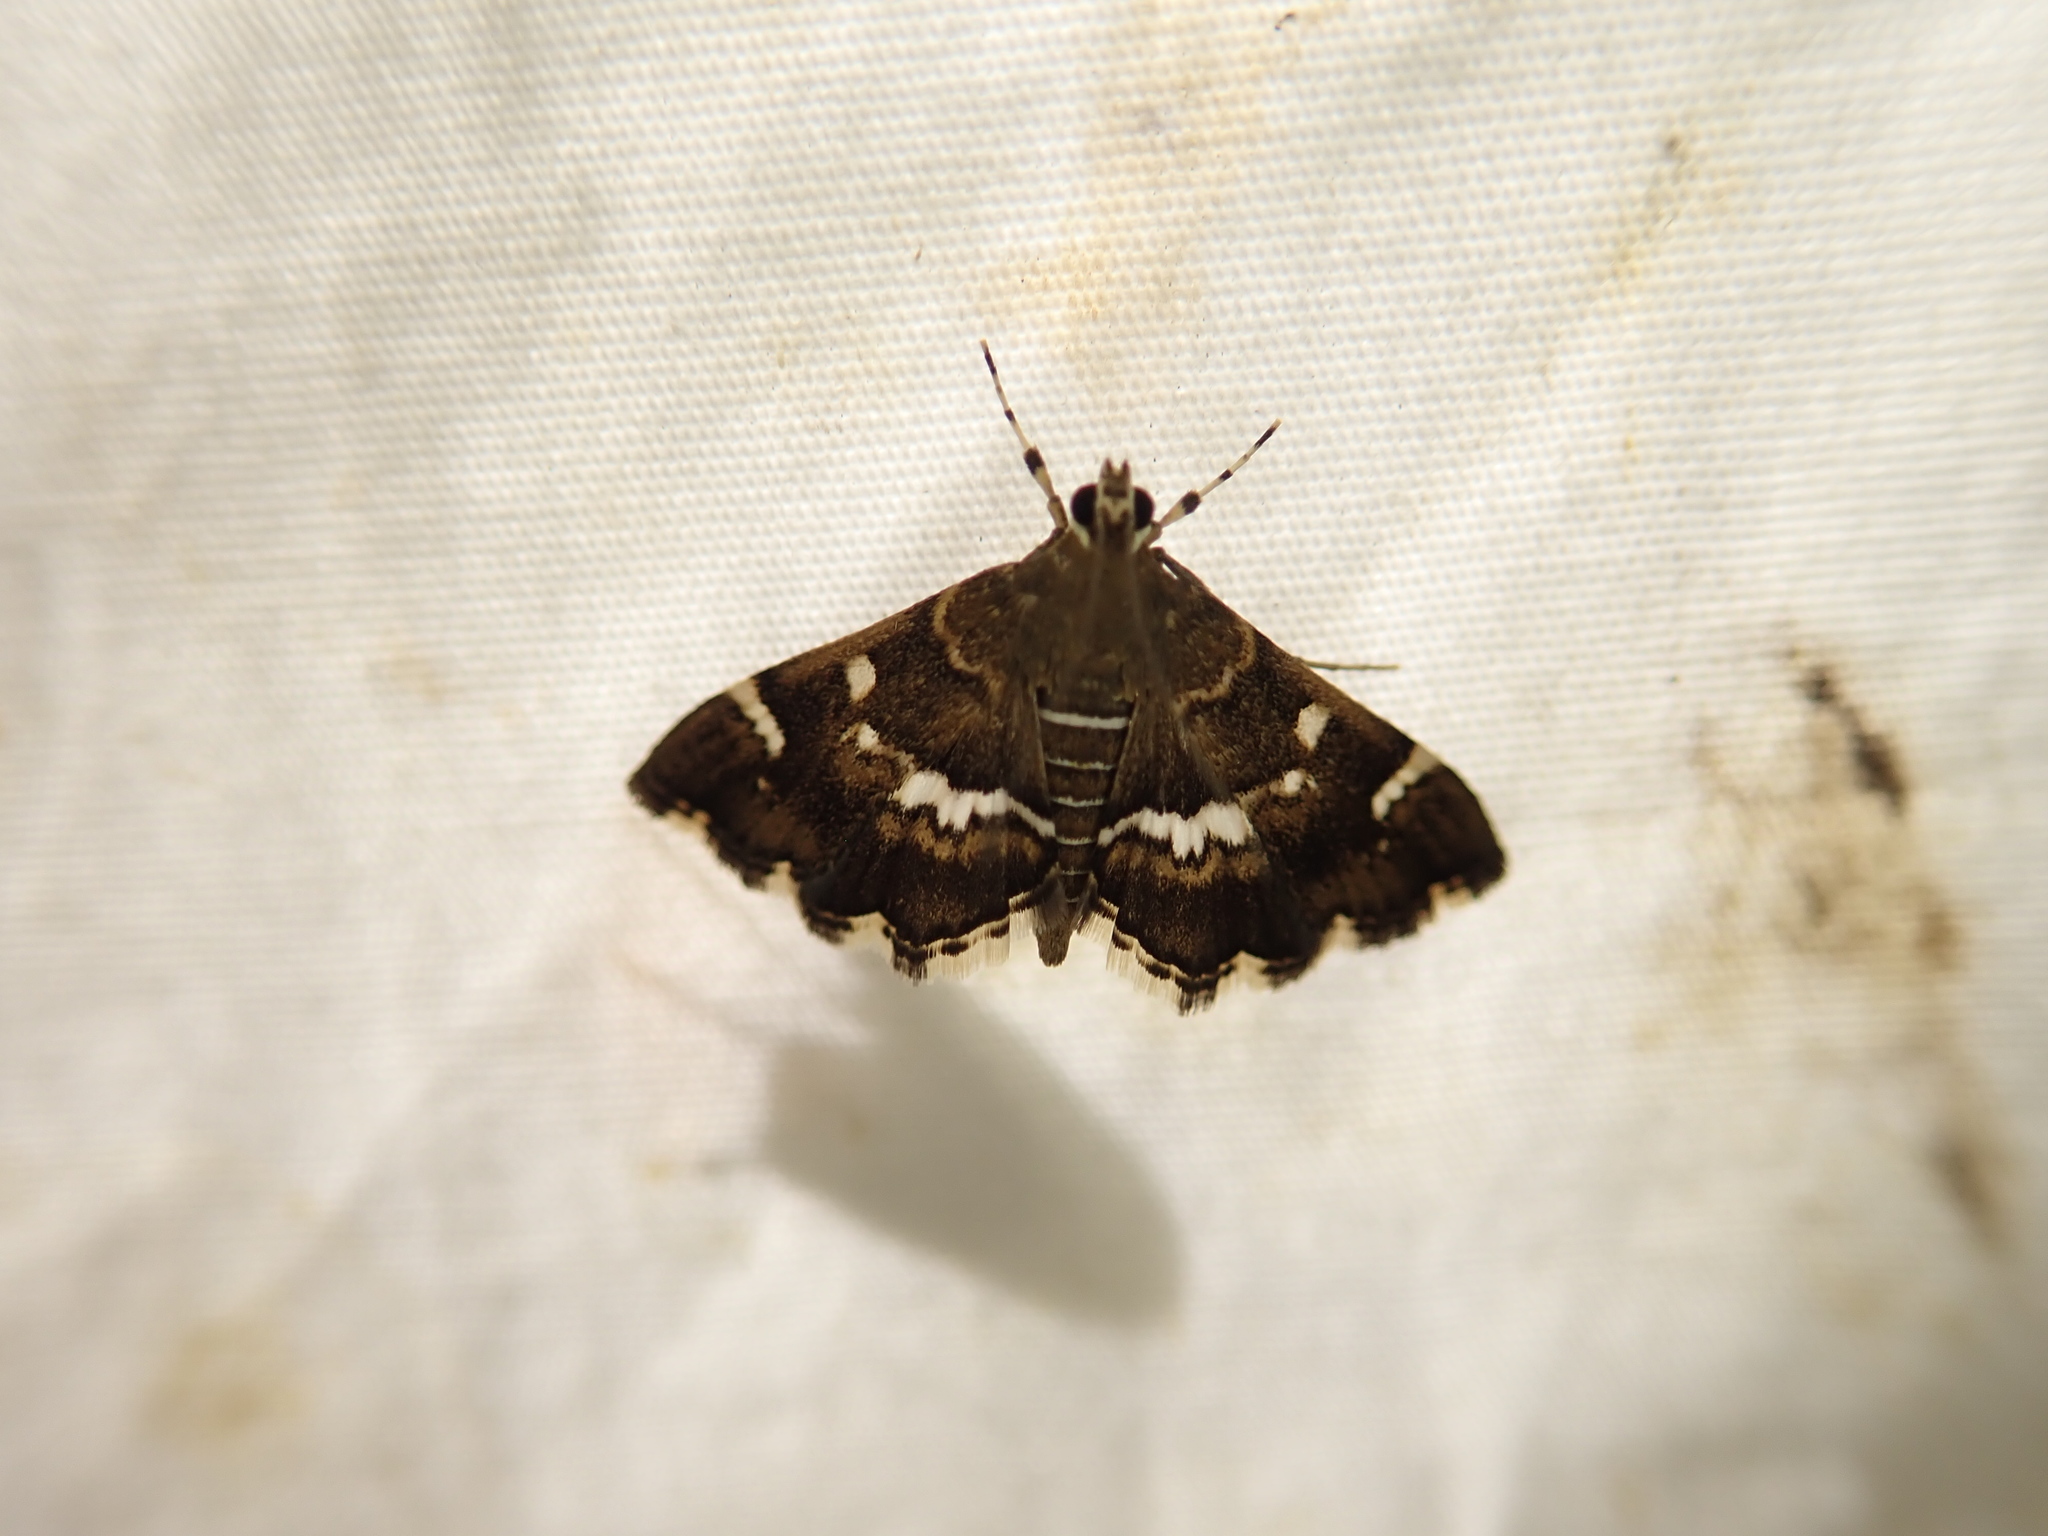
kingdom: Animalia
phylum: Arthropoda
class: Insecta
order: Lepidoptera
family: Crambidae
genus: Hymenia
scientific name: Hymenia perspectalis
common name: Spotted beet webworm
